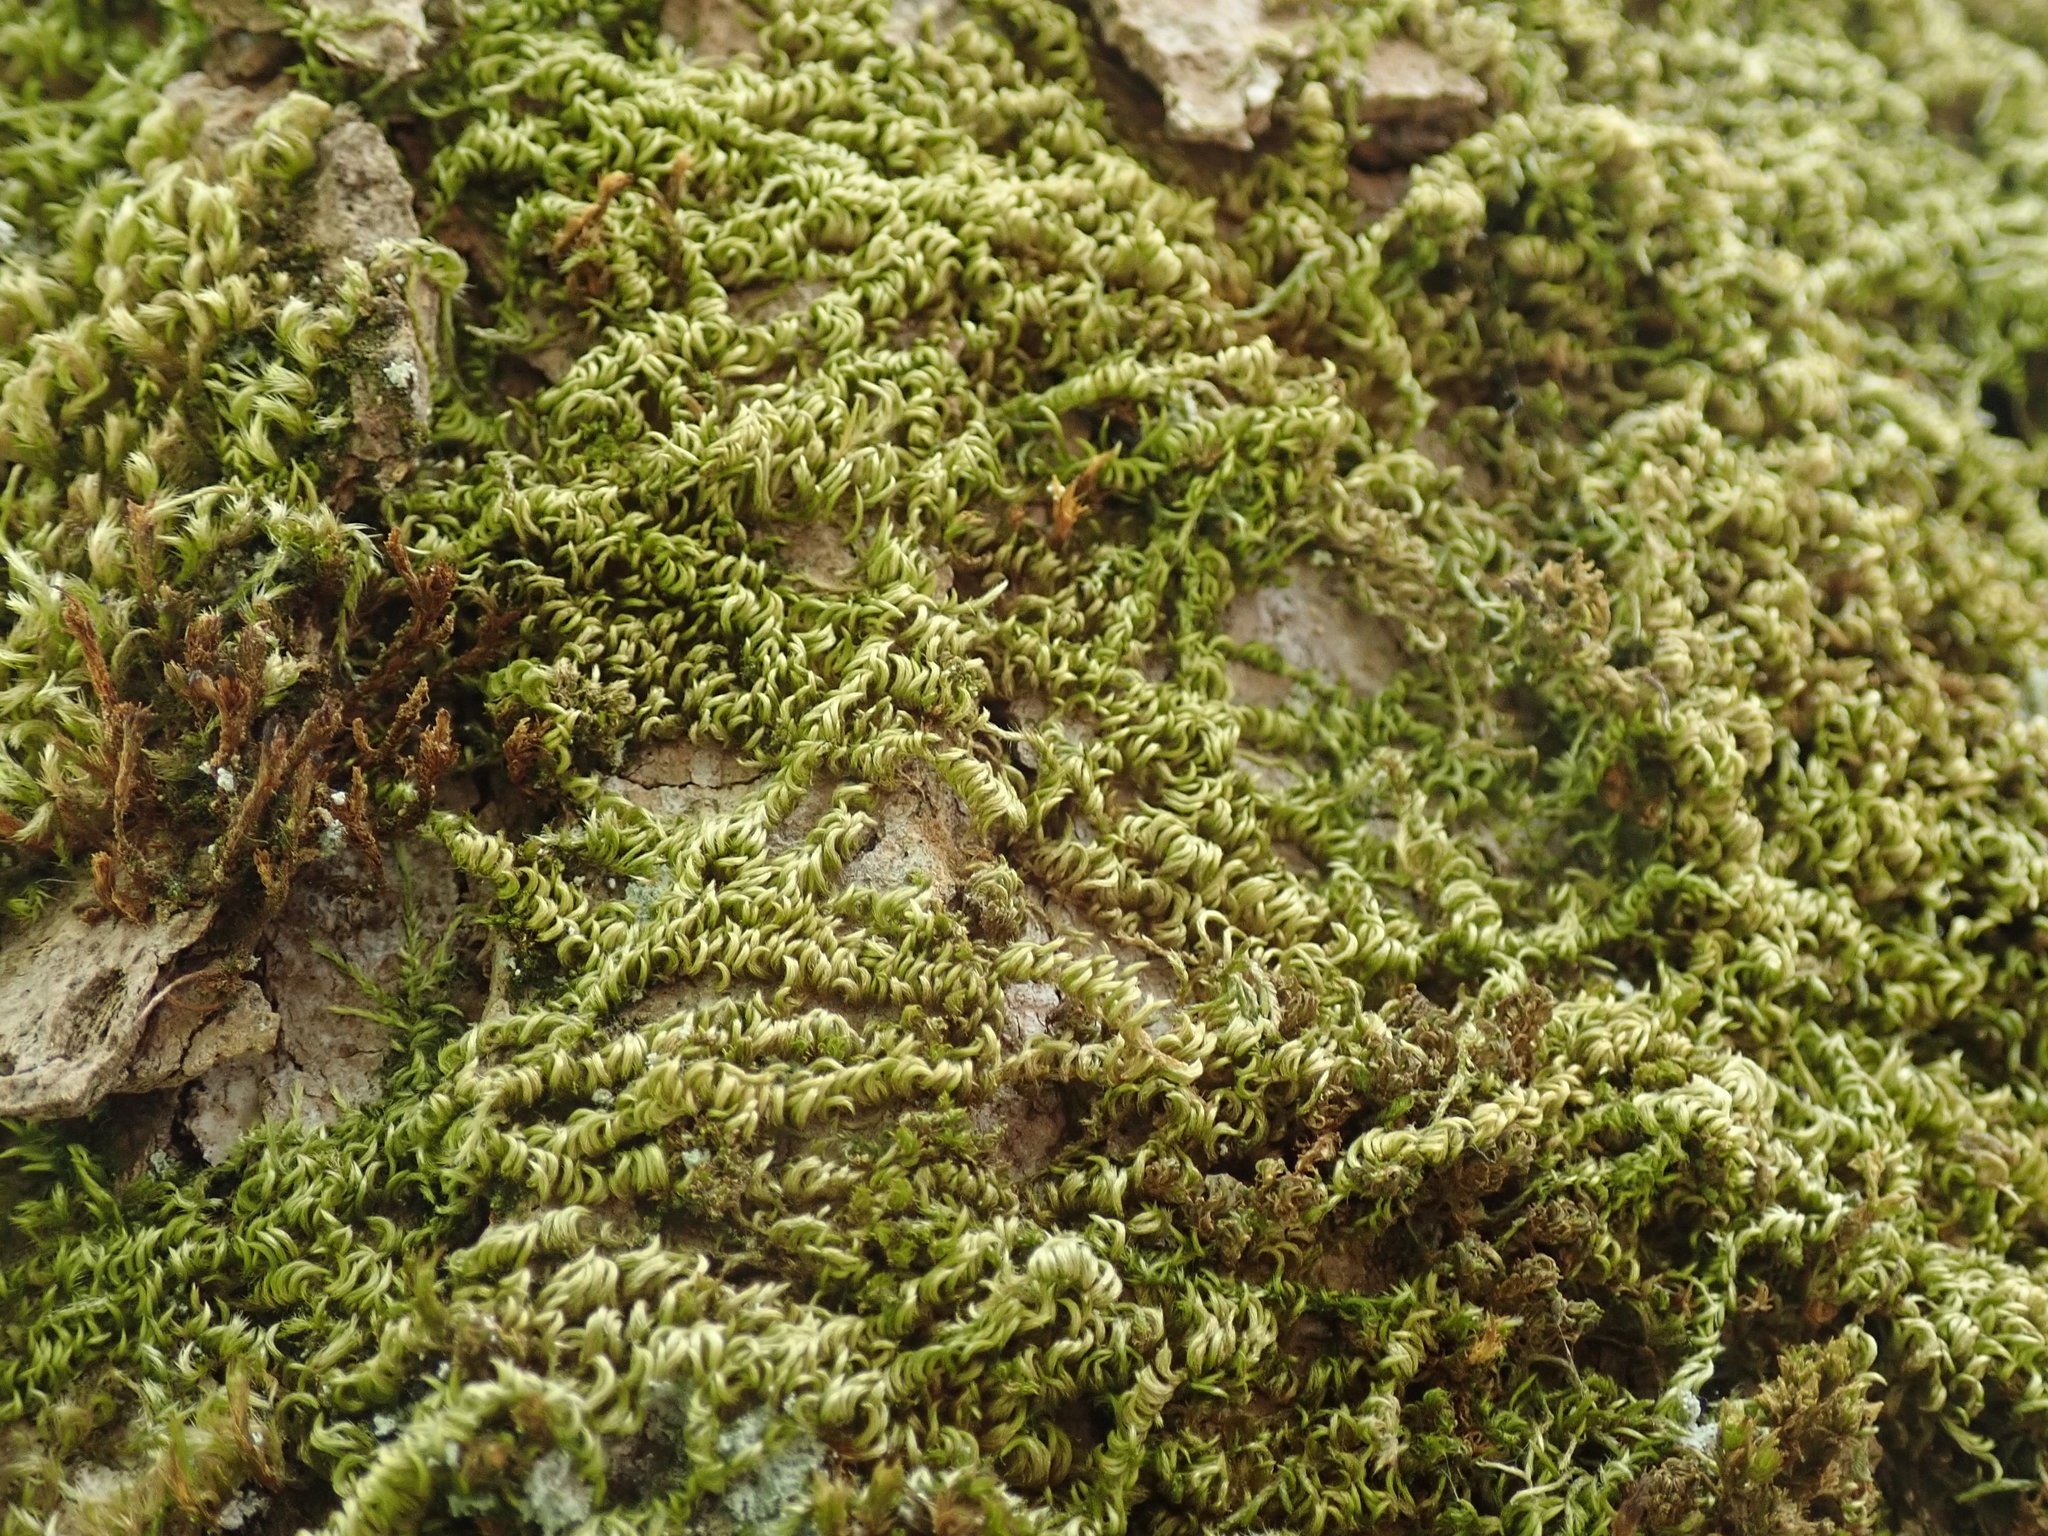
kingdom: Plantae
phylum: Bryophyta
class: Bryopsida
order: Hypnales
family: Brachytheciaceae
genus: Homalothecium
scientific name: Homalothecium nuttallii
